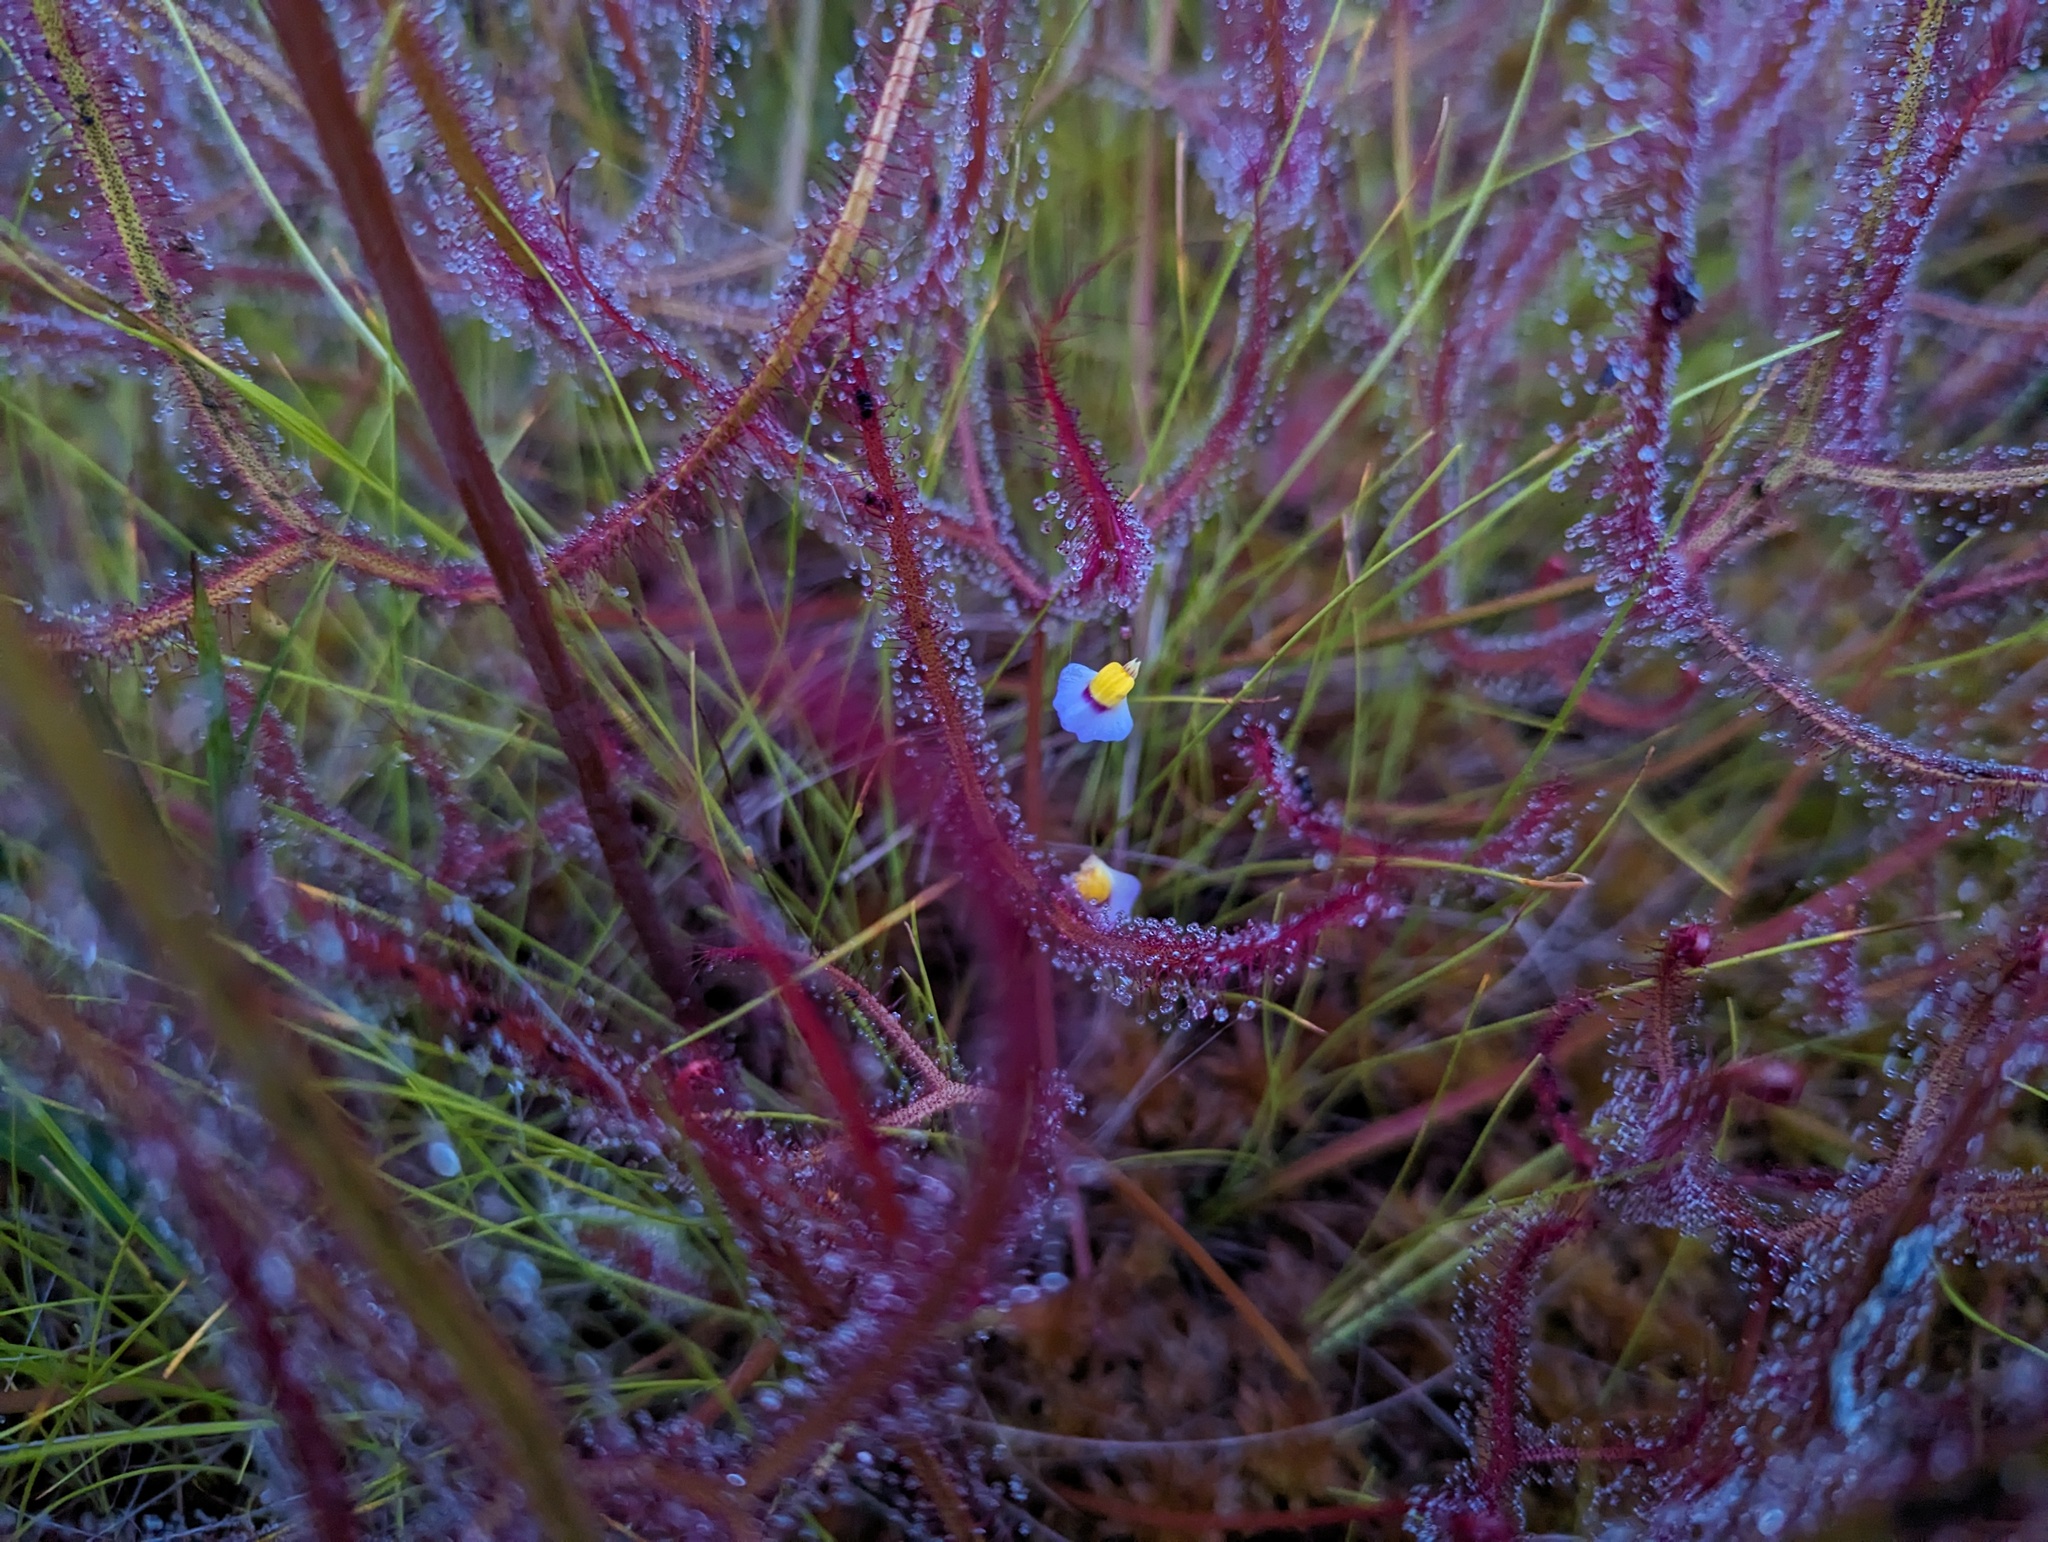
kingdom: Plantae
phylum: Tracheophyta
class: Magnoliopsida
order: Lamiales
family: Lentibulariaceae
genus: Utricularia
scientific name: Utricularia bisquamata
